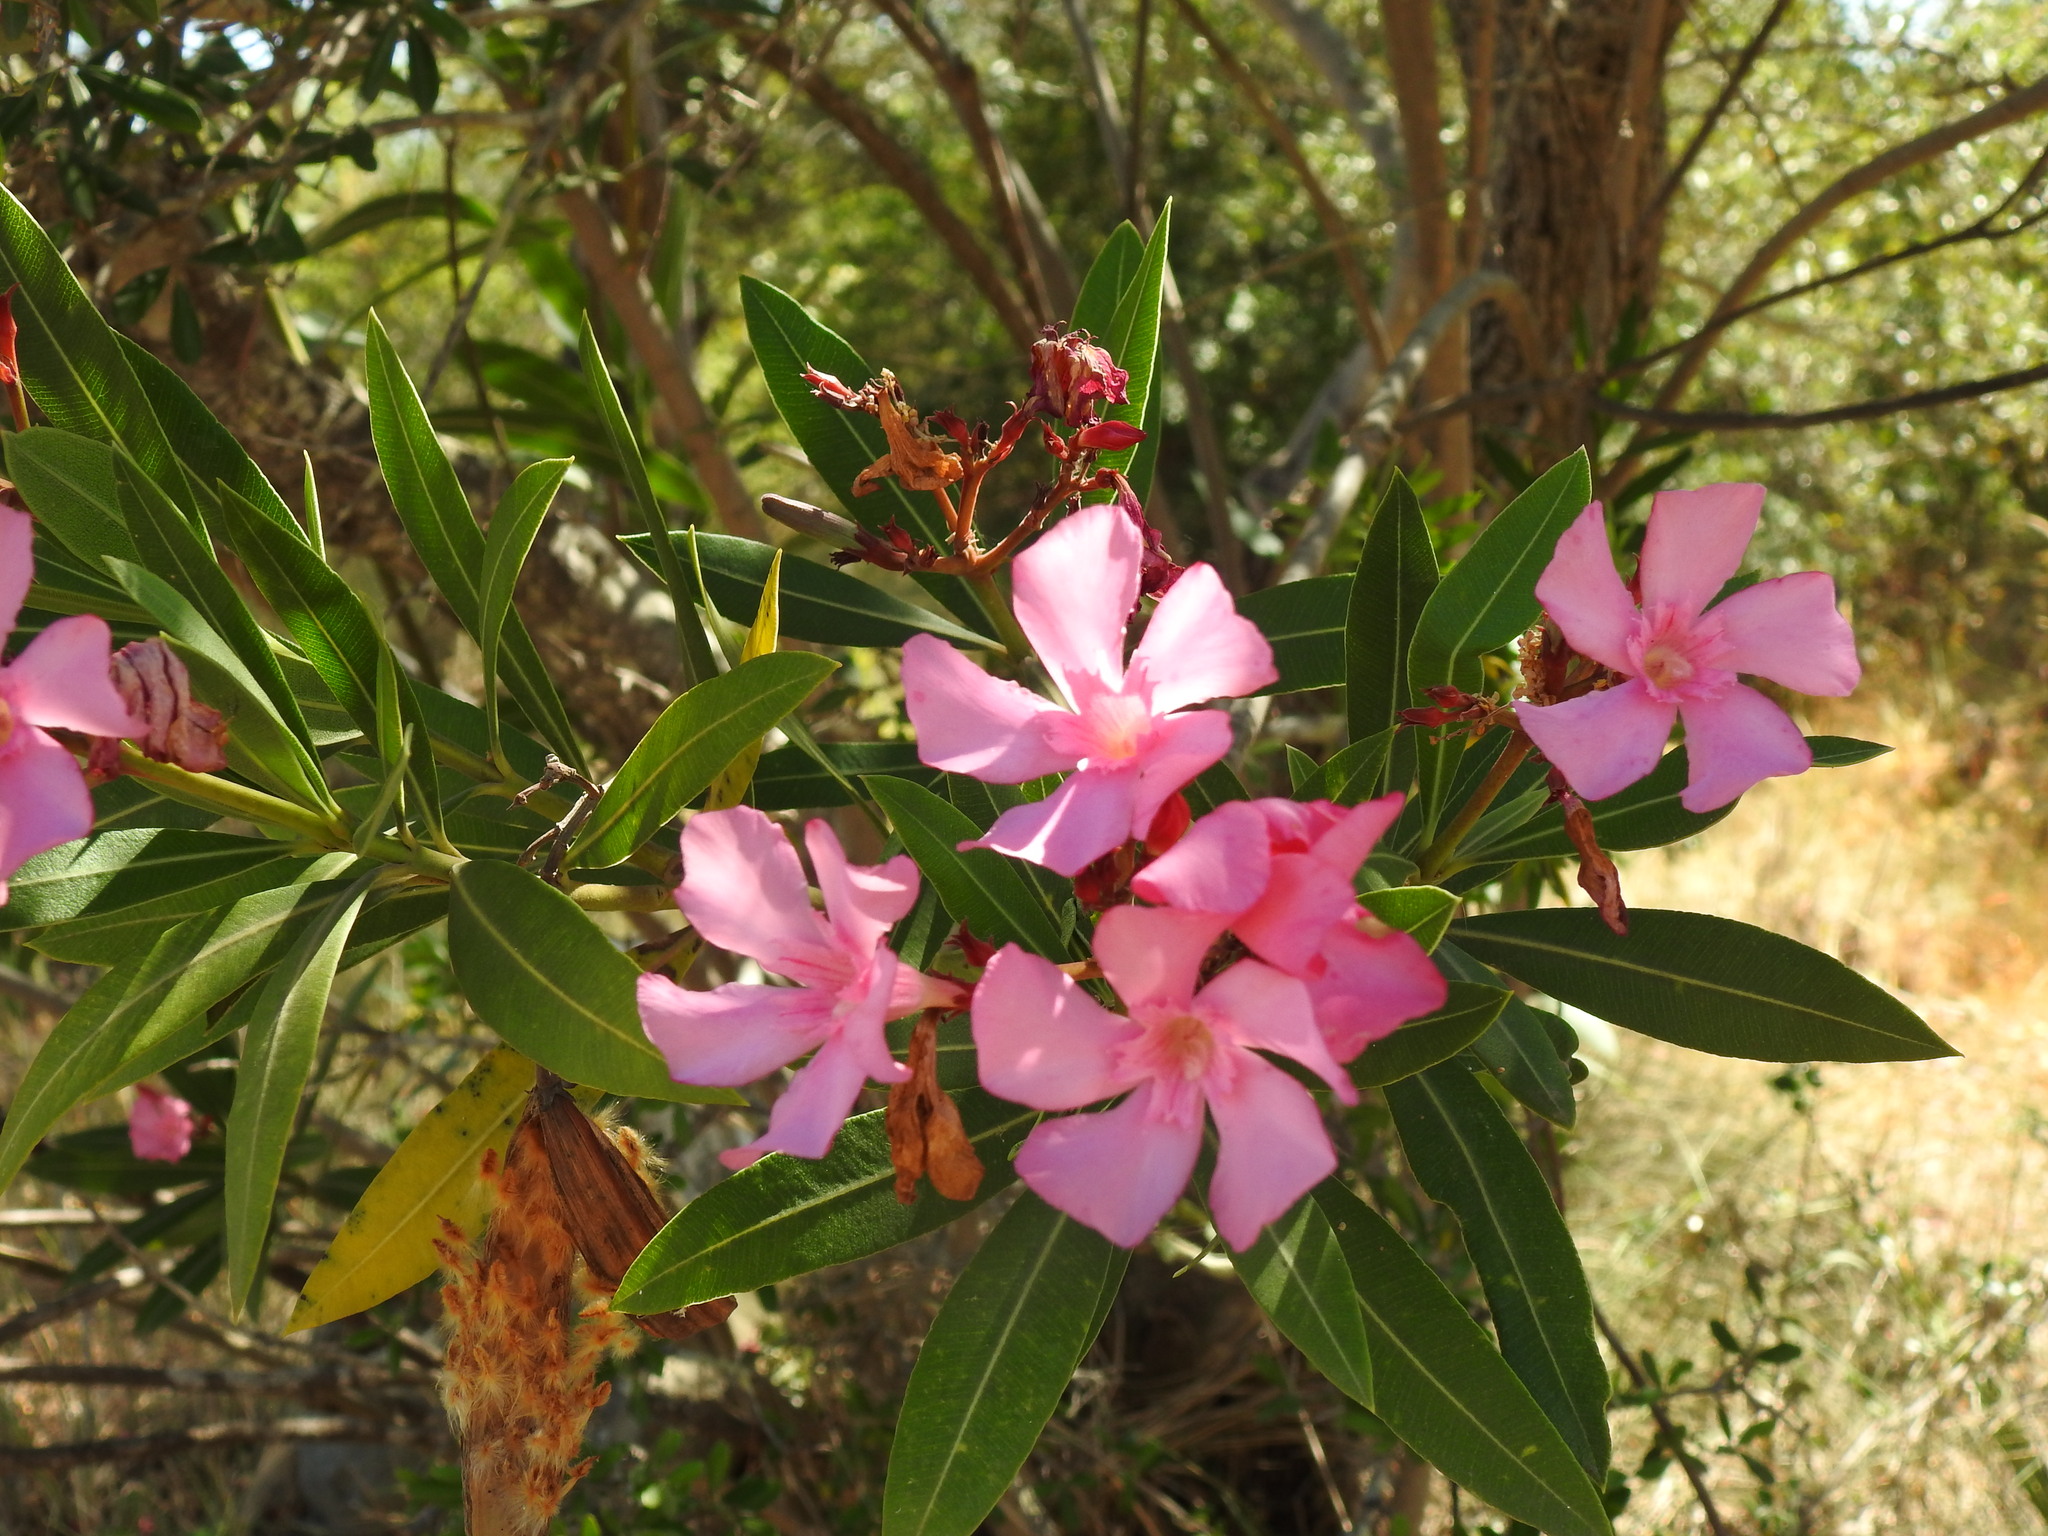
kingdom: Plantae
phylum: Tracheophyta
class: Magnoliopsida
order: Gentianales
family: Apocynaceae
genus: Nerium
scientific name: Nerium oleander
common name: Oleander
